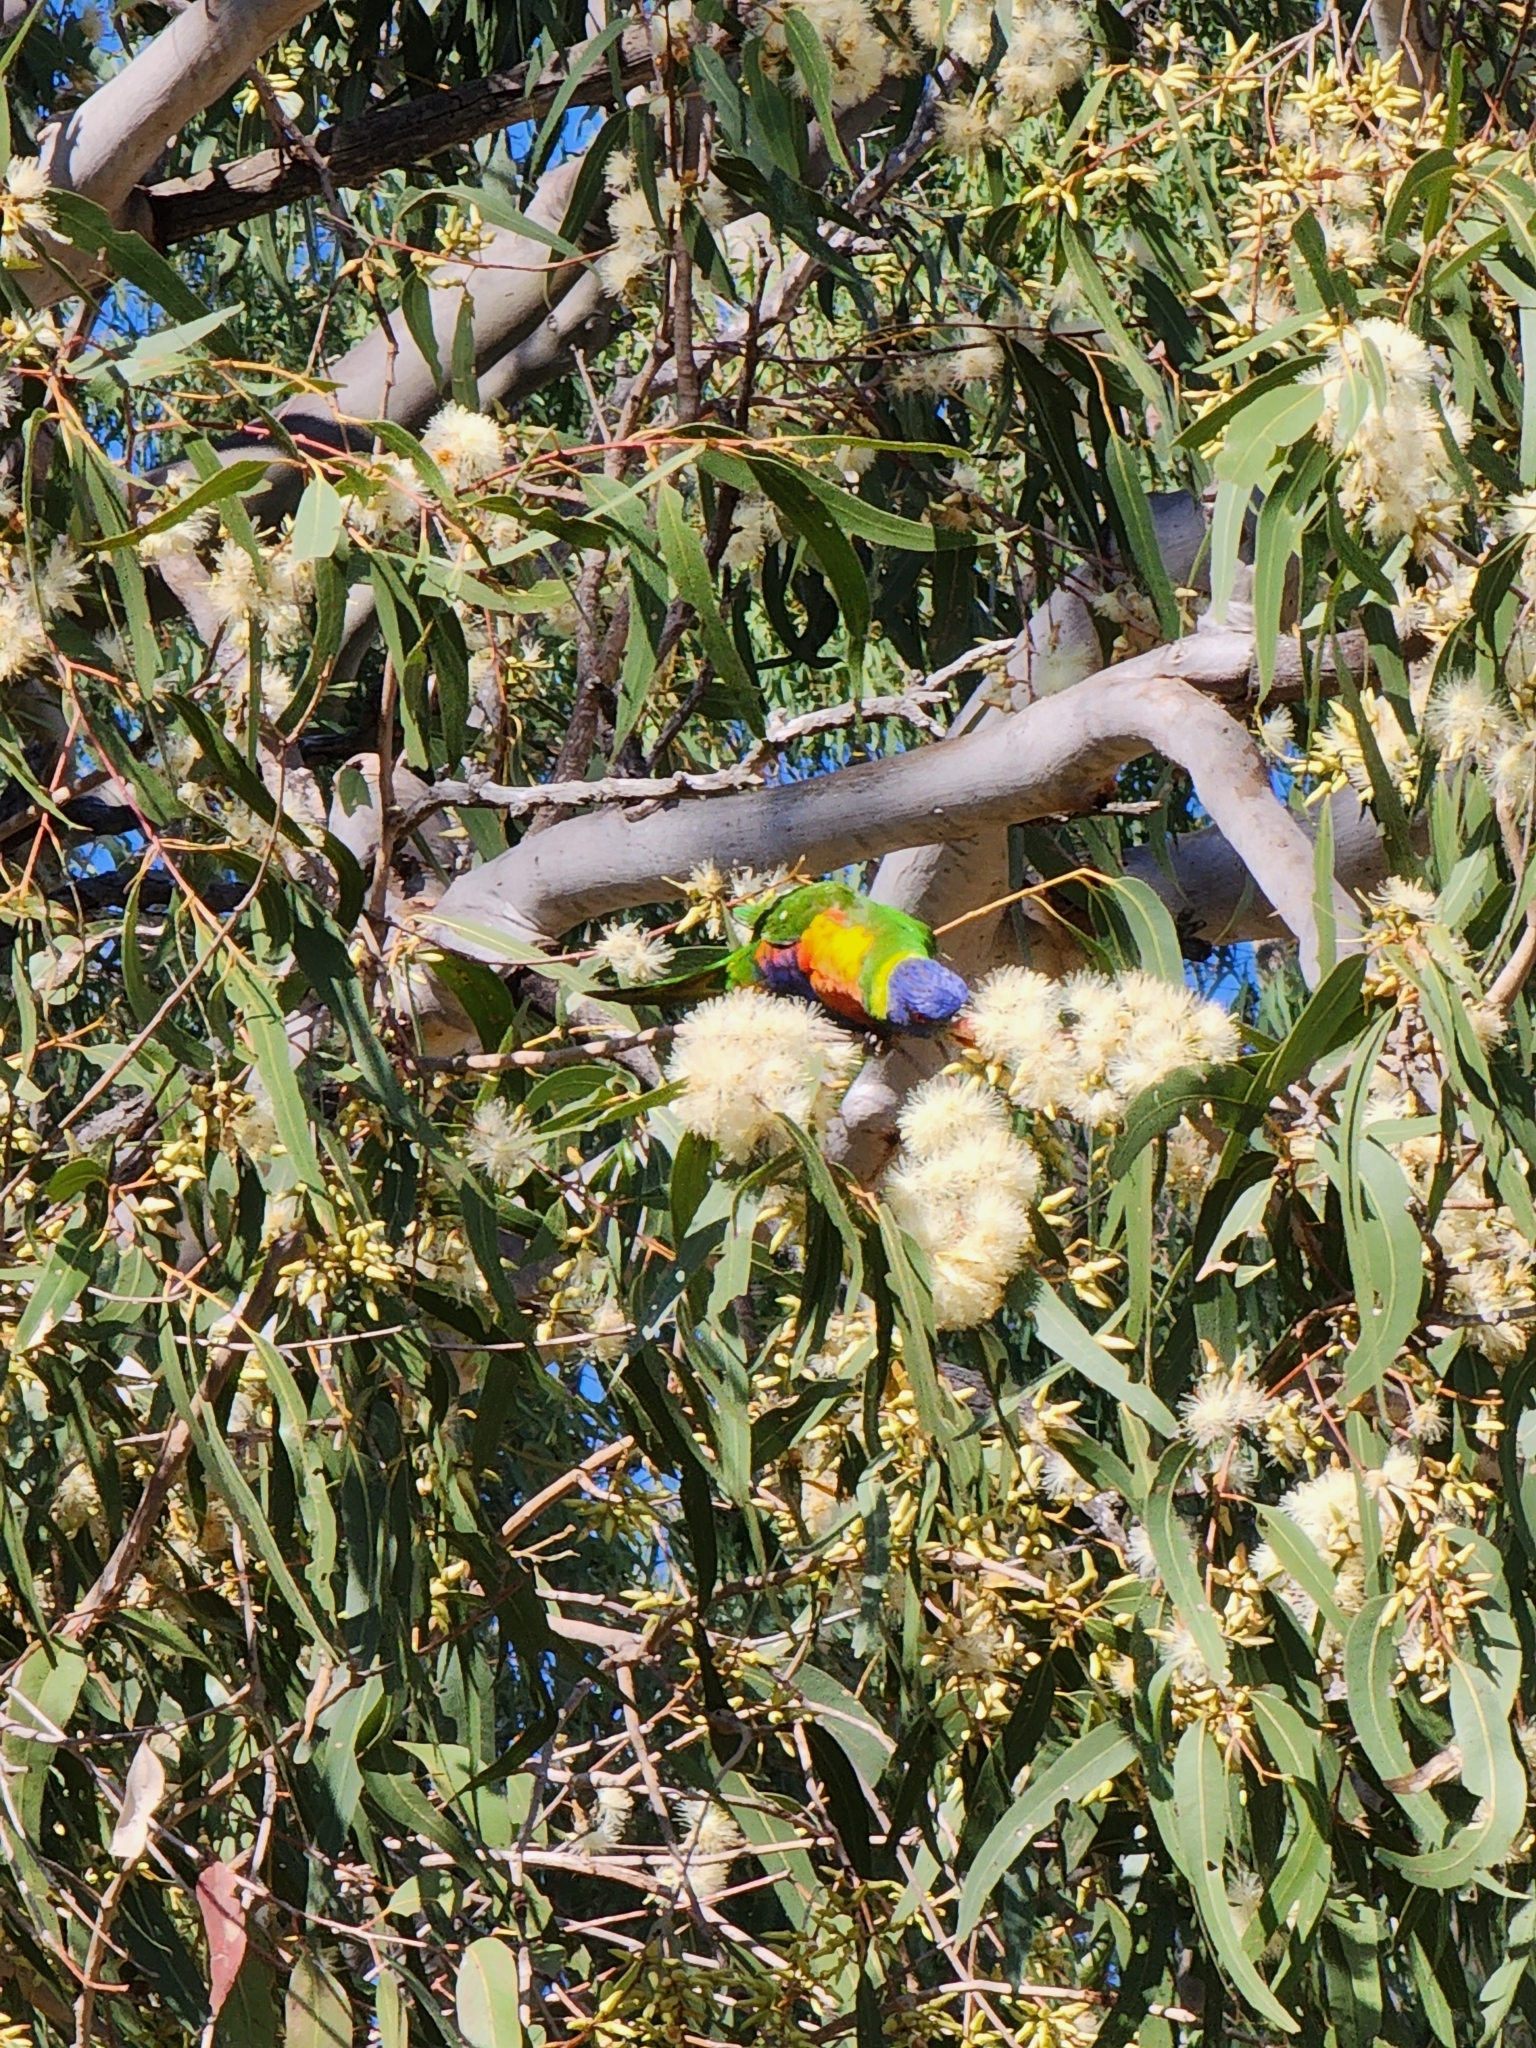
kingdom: Animalia
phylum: Chordata
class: Aves
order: Psittaciformes
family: Psittacidae
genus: Trichoglossus
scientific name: Trichoglossus haematodus
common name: Coconut lorikeet
